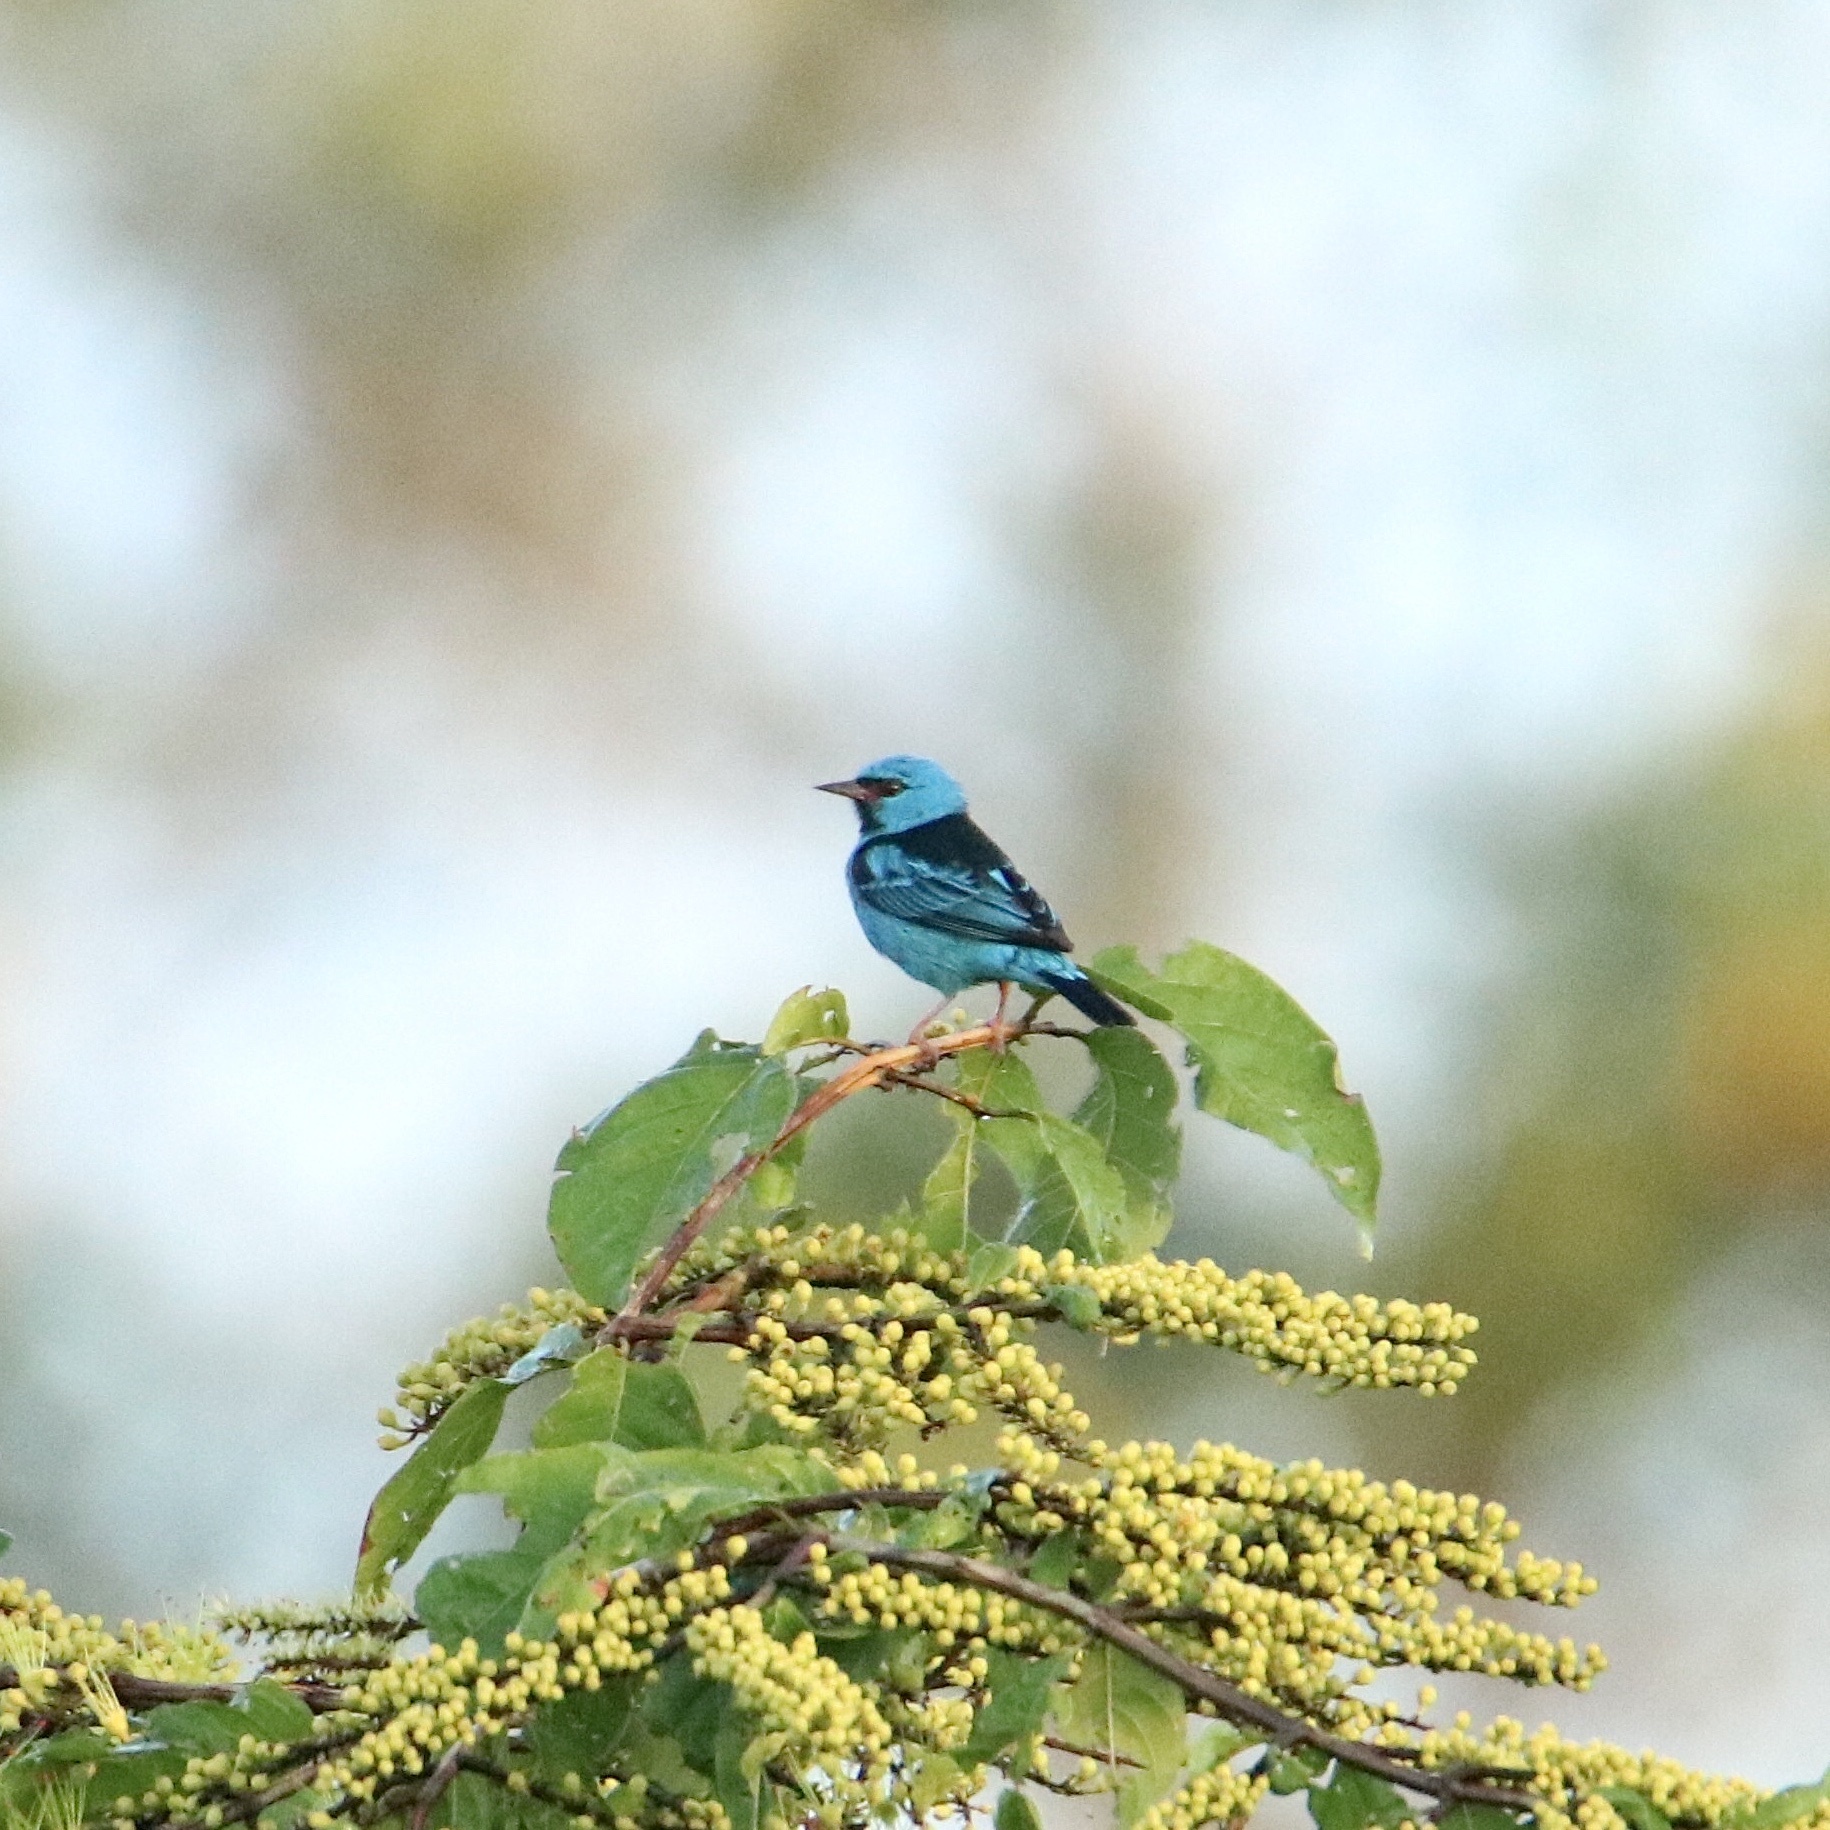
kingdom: Animalia
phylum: Chordata
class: Aves
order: Passeriformes
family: Thraupidae
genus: Dacnis
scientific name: Dacnis cayana
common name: Blue dacnis
